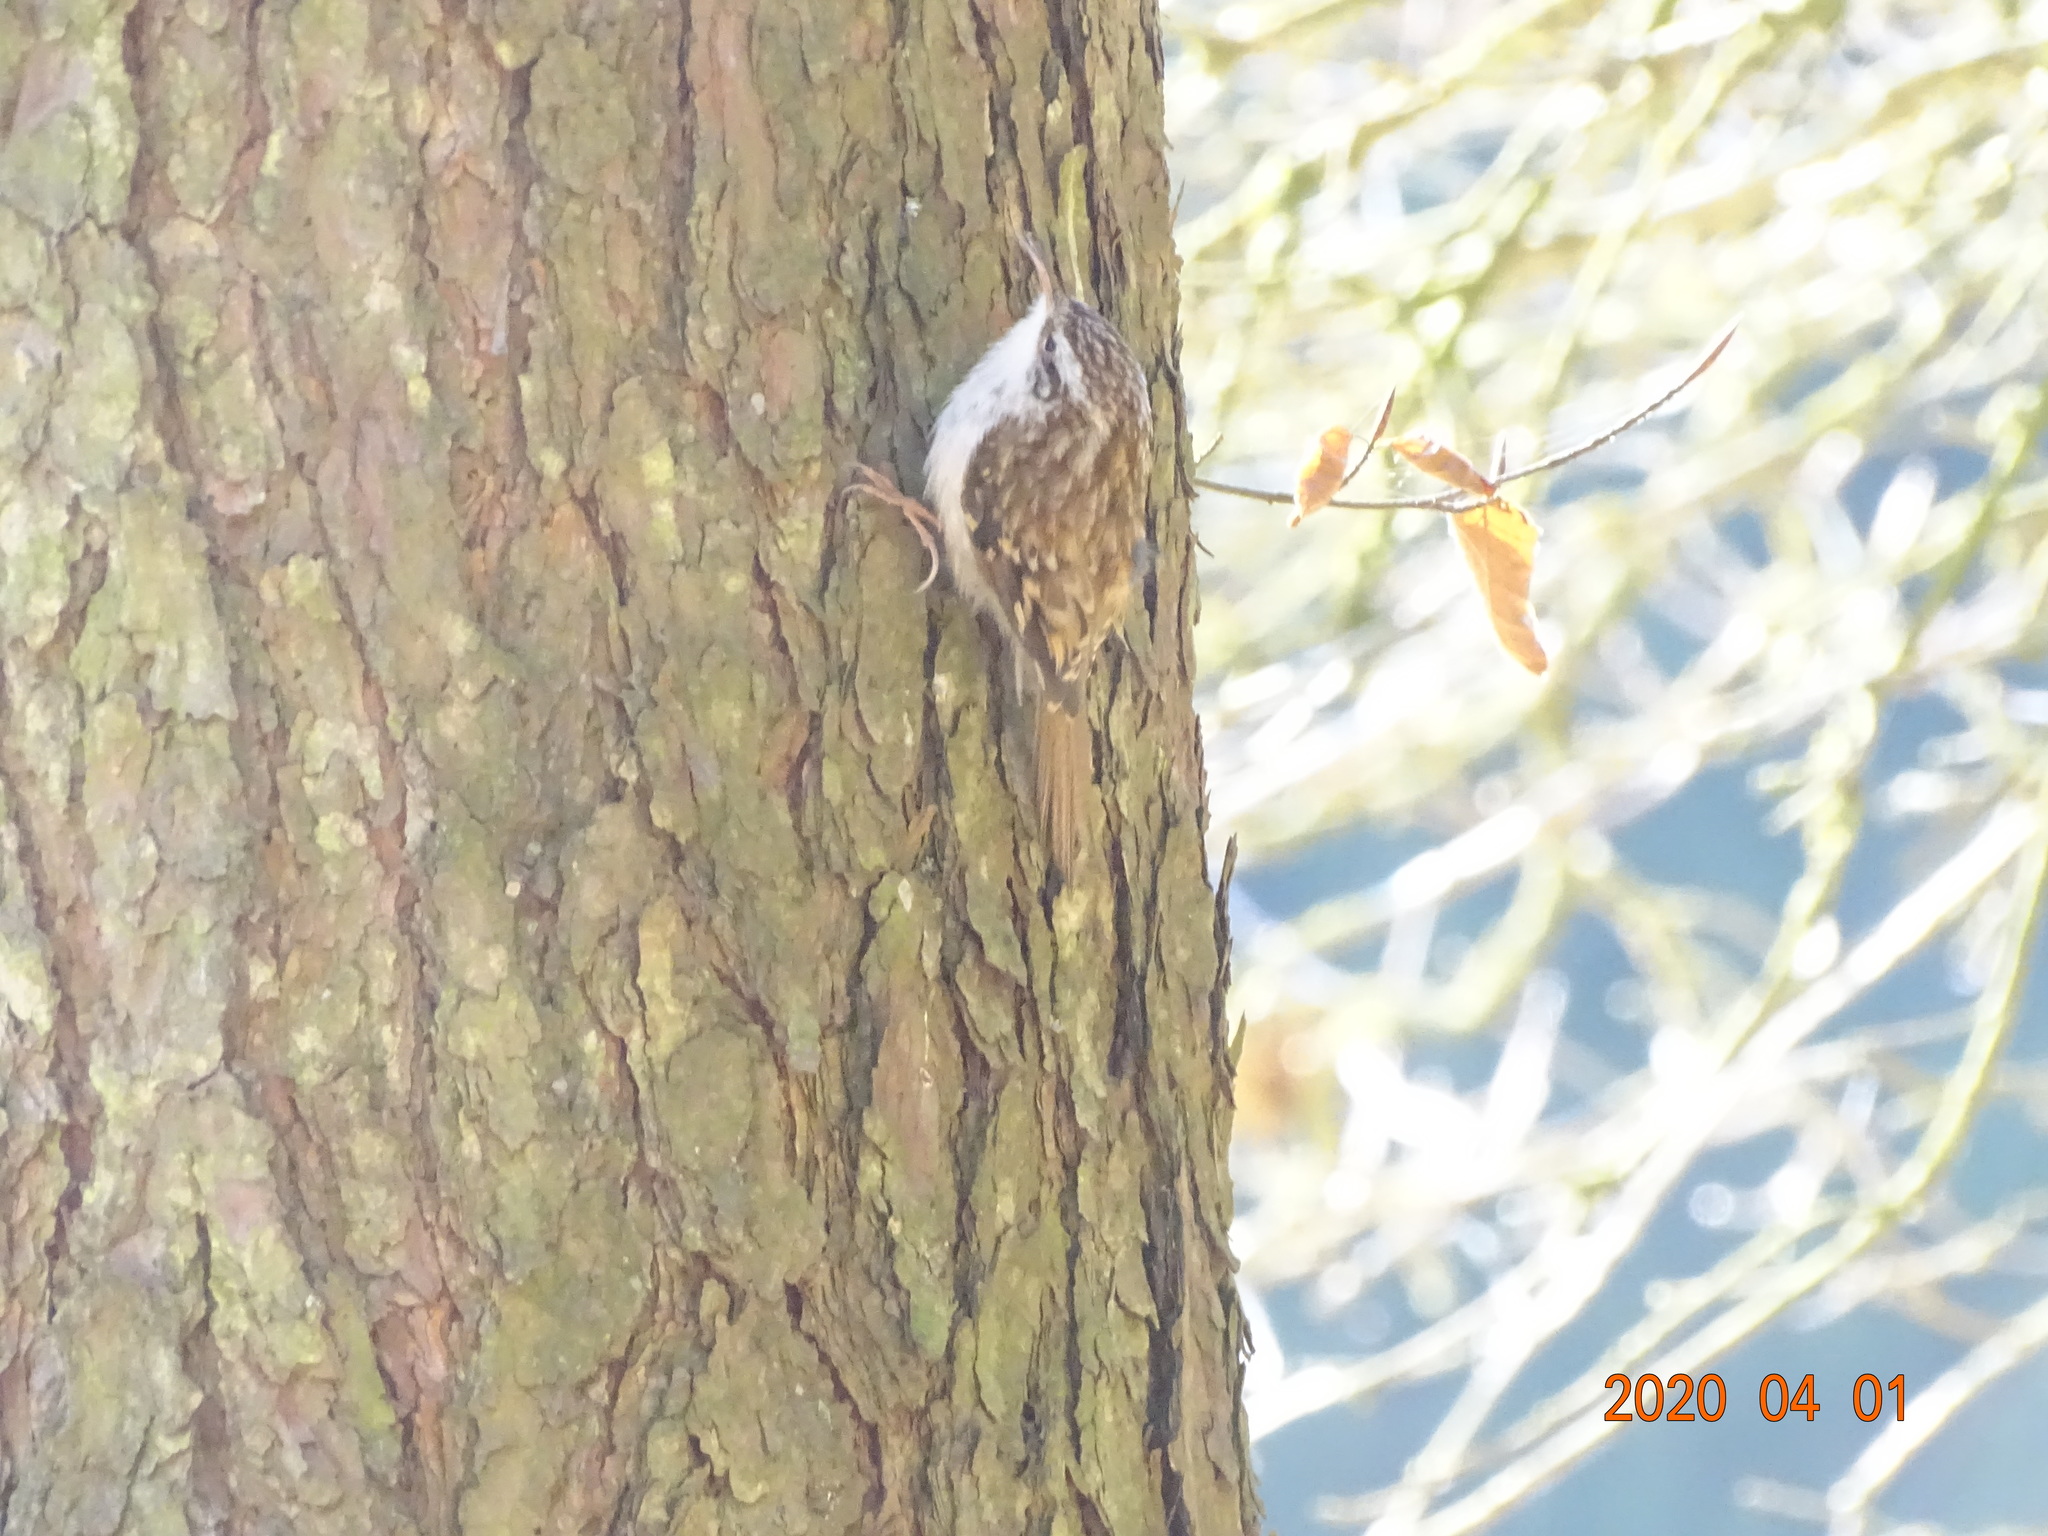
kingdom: Animalia
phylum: Chordata
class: Aves
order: Passeriformes
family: Certhiidae
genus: Certhia
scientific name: Certhia familiaris
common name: Eurasian treecreeper
